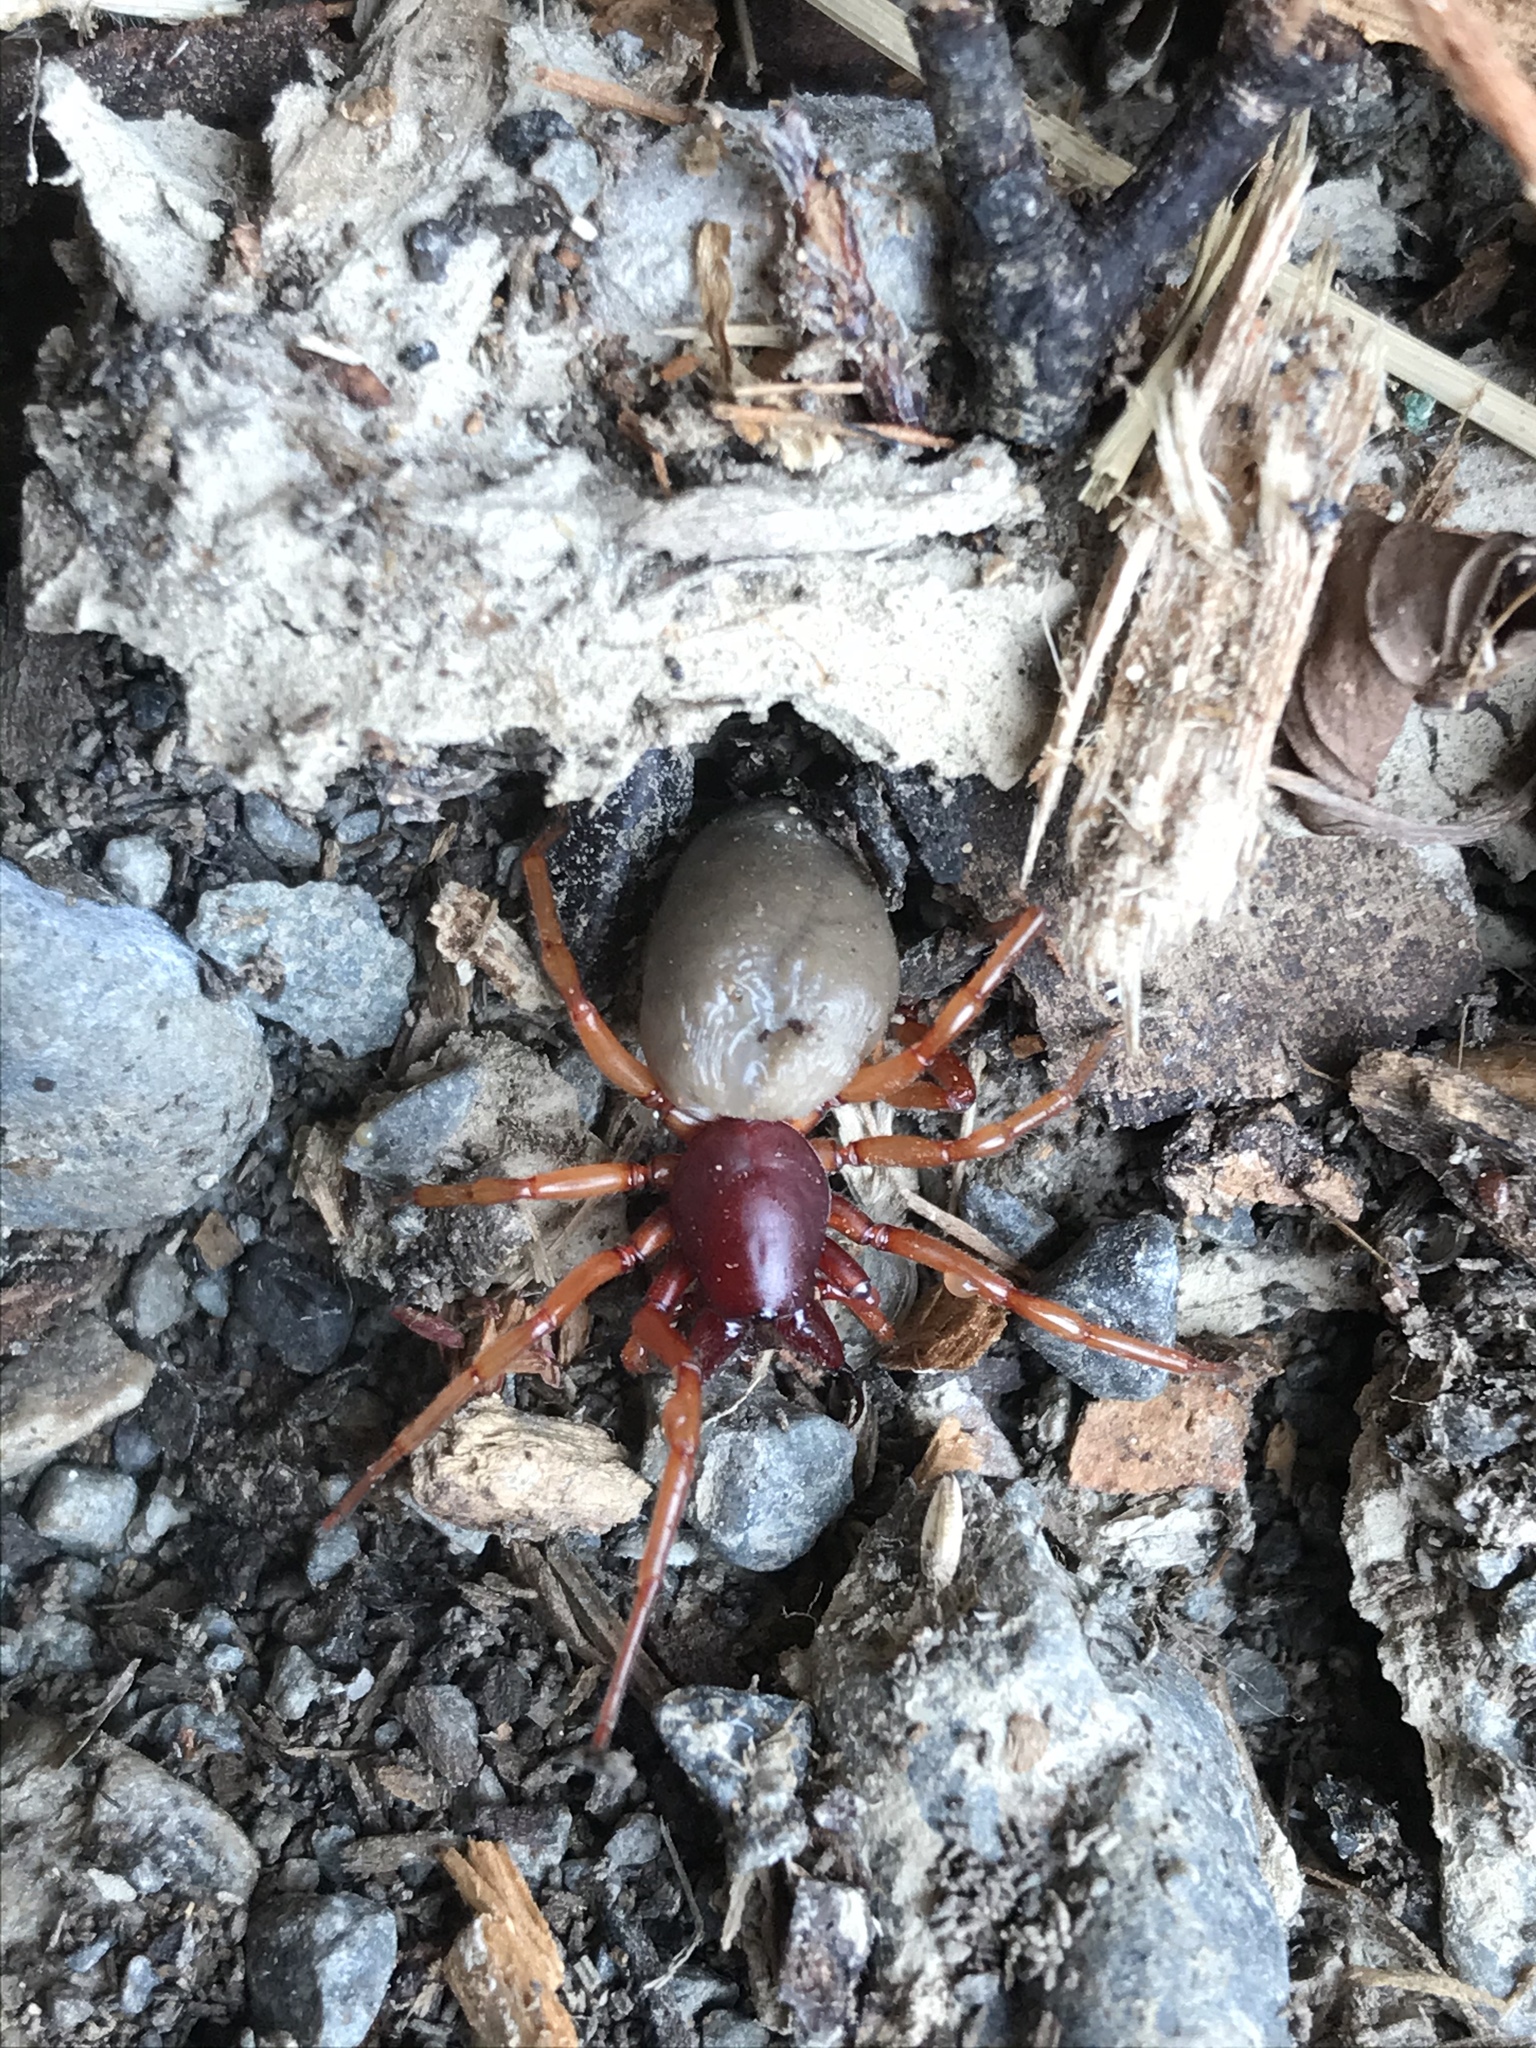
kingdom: Animalia
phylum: Arthropoda
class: Arachnida
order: Araneae
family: Dysderidae
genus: Dysdera
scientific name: Dysdera crocata
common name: Woodlouse spider
